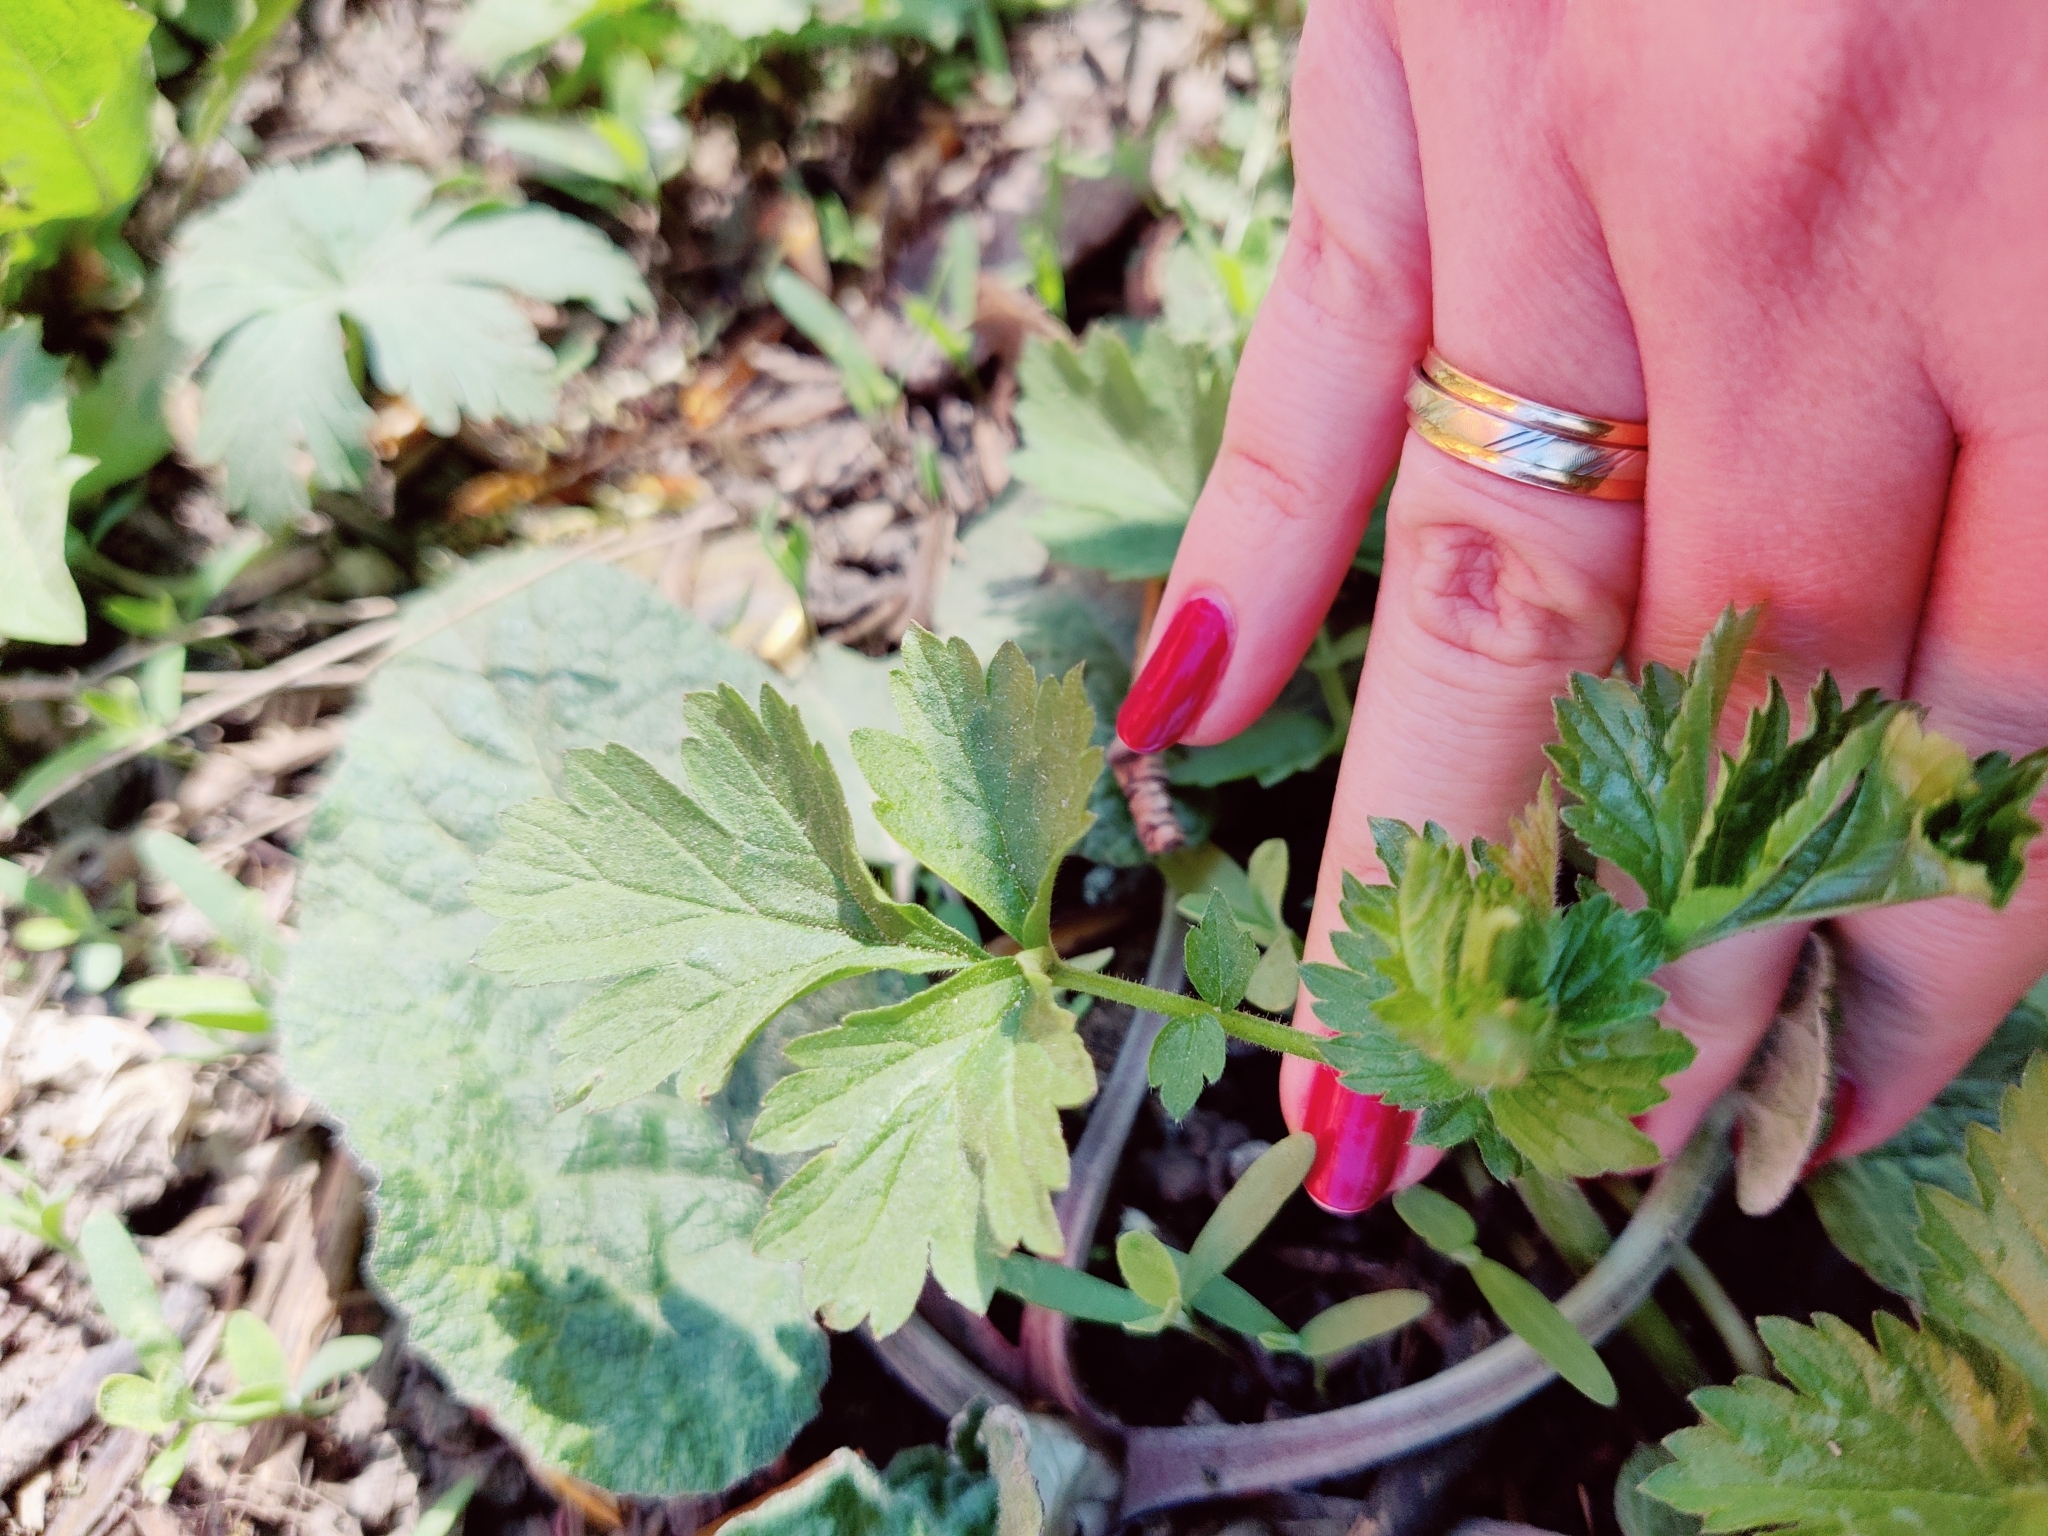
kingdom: Plantae
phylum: Tracheophyta
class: Magnoliopsida
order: Rosales
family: Rosaceae
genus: Geum
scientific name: Geum urbanum
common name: Wood avens
